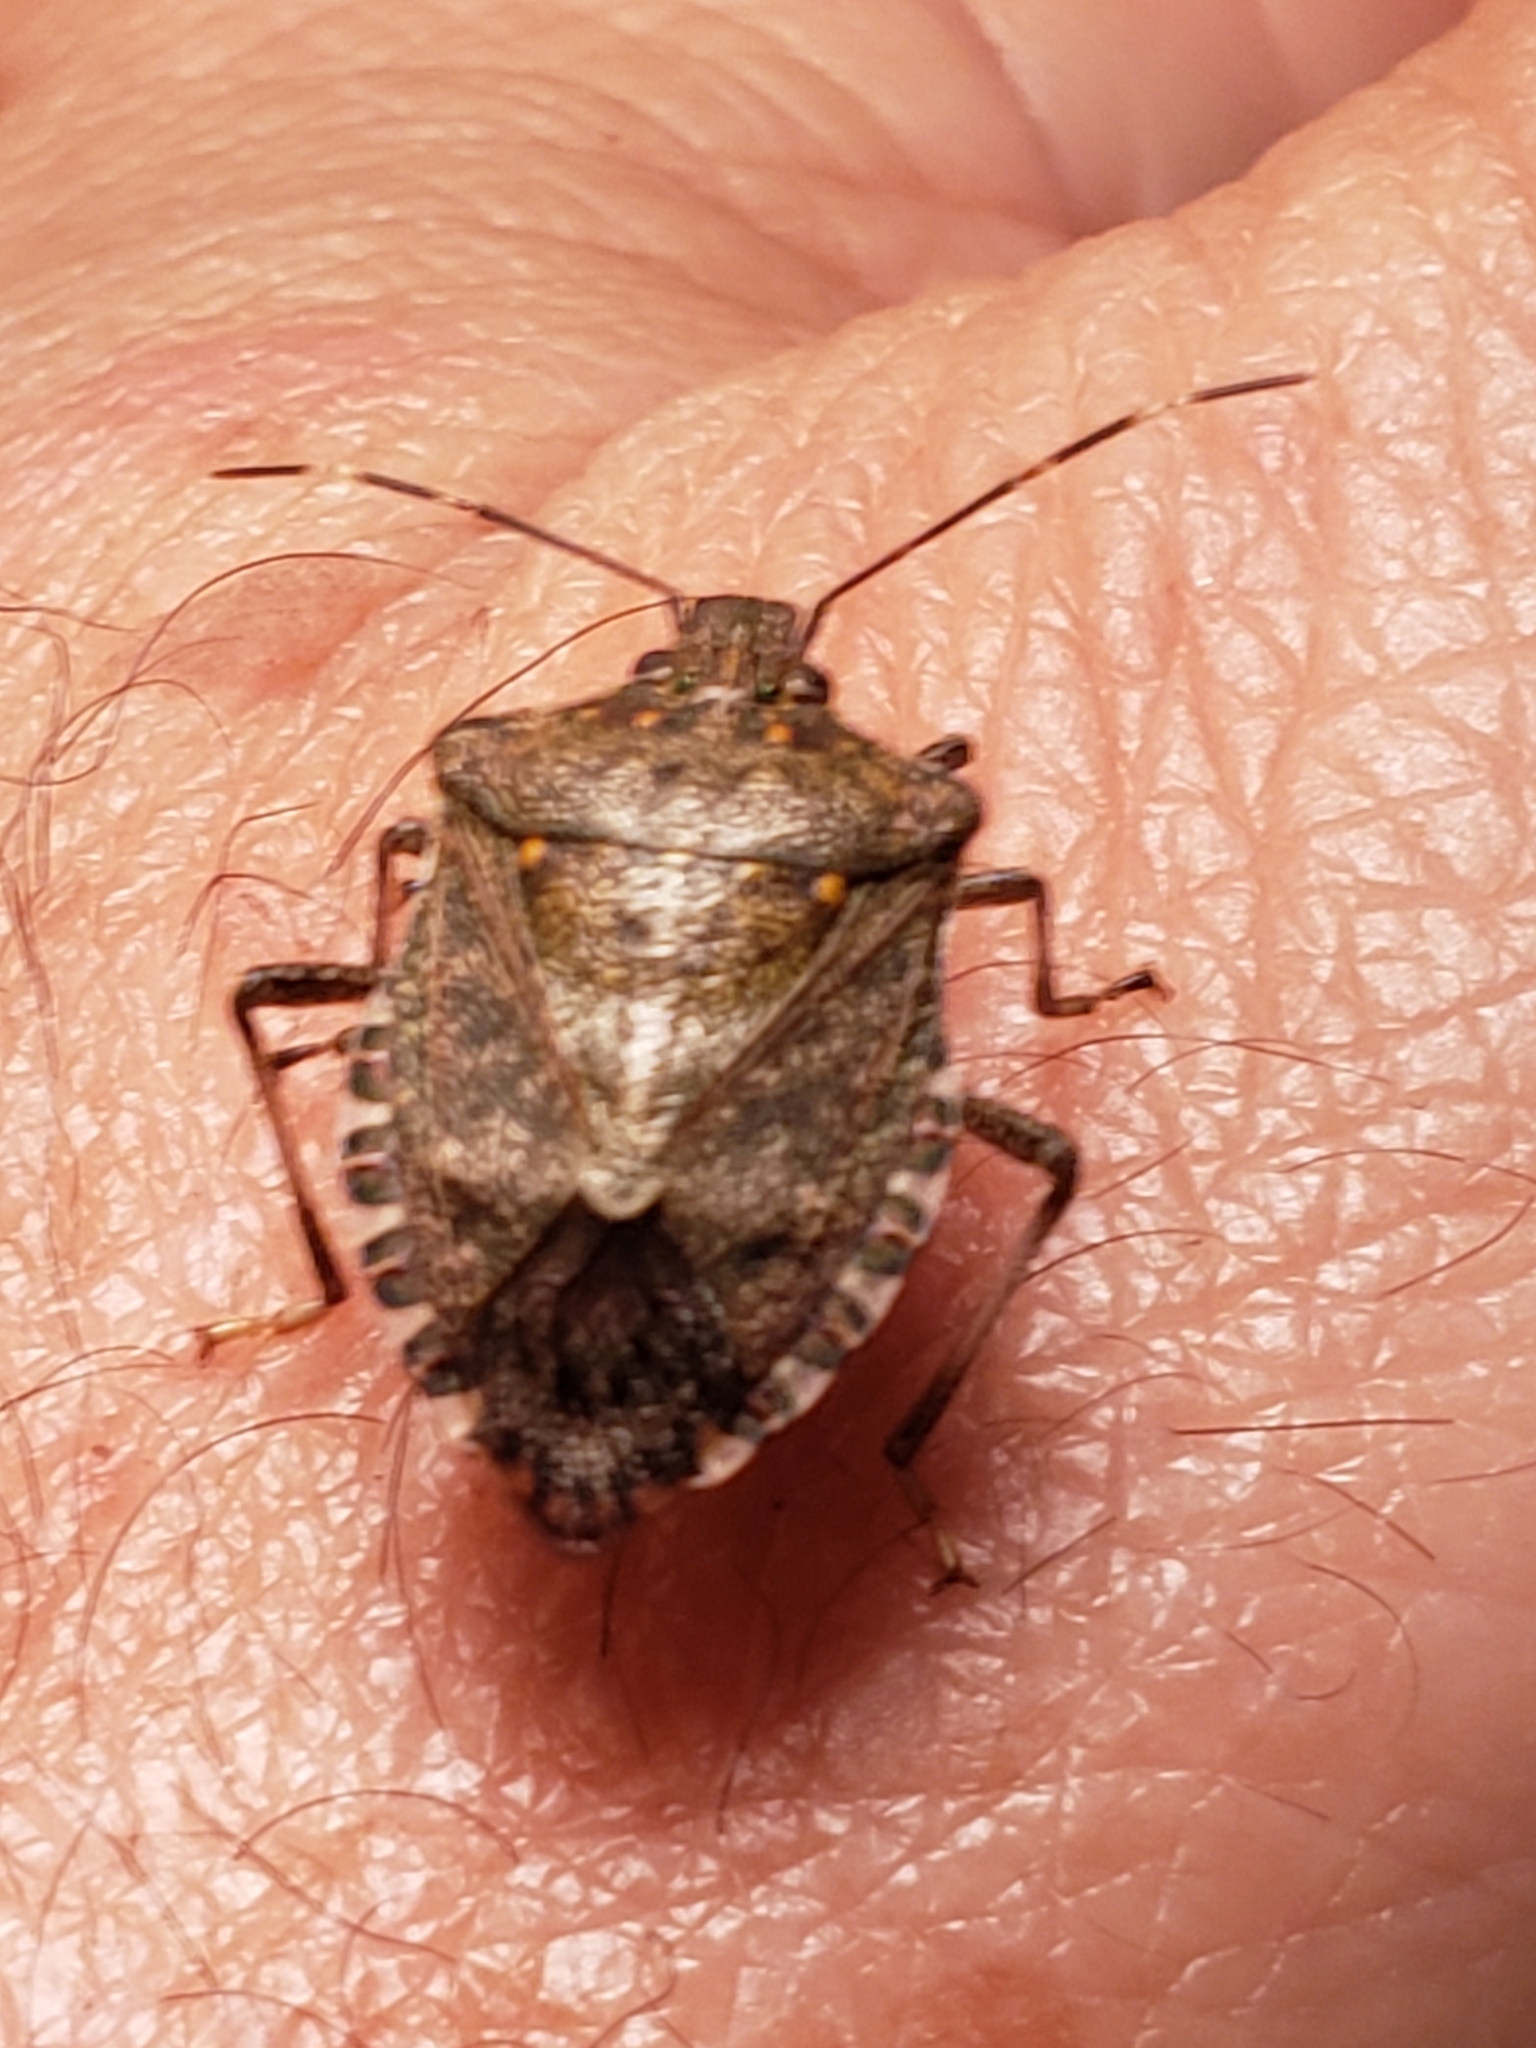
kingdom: Animalia
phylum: Arthropoda
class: Insecta
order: Hemiptera
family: Pentatomidae
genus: Halyomorpha
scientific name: Halyomorpha halys
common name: Brown marmorated stink bug
